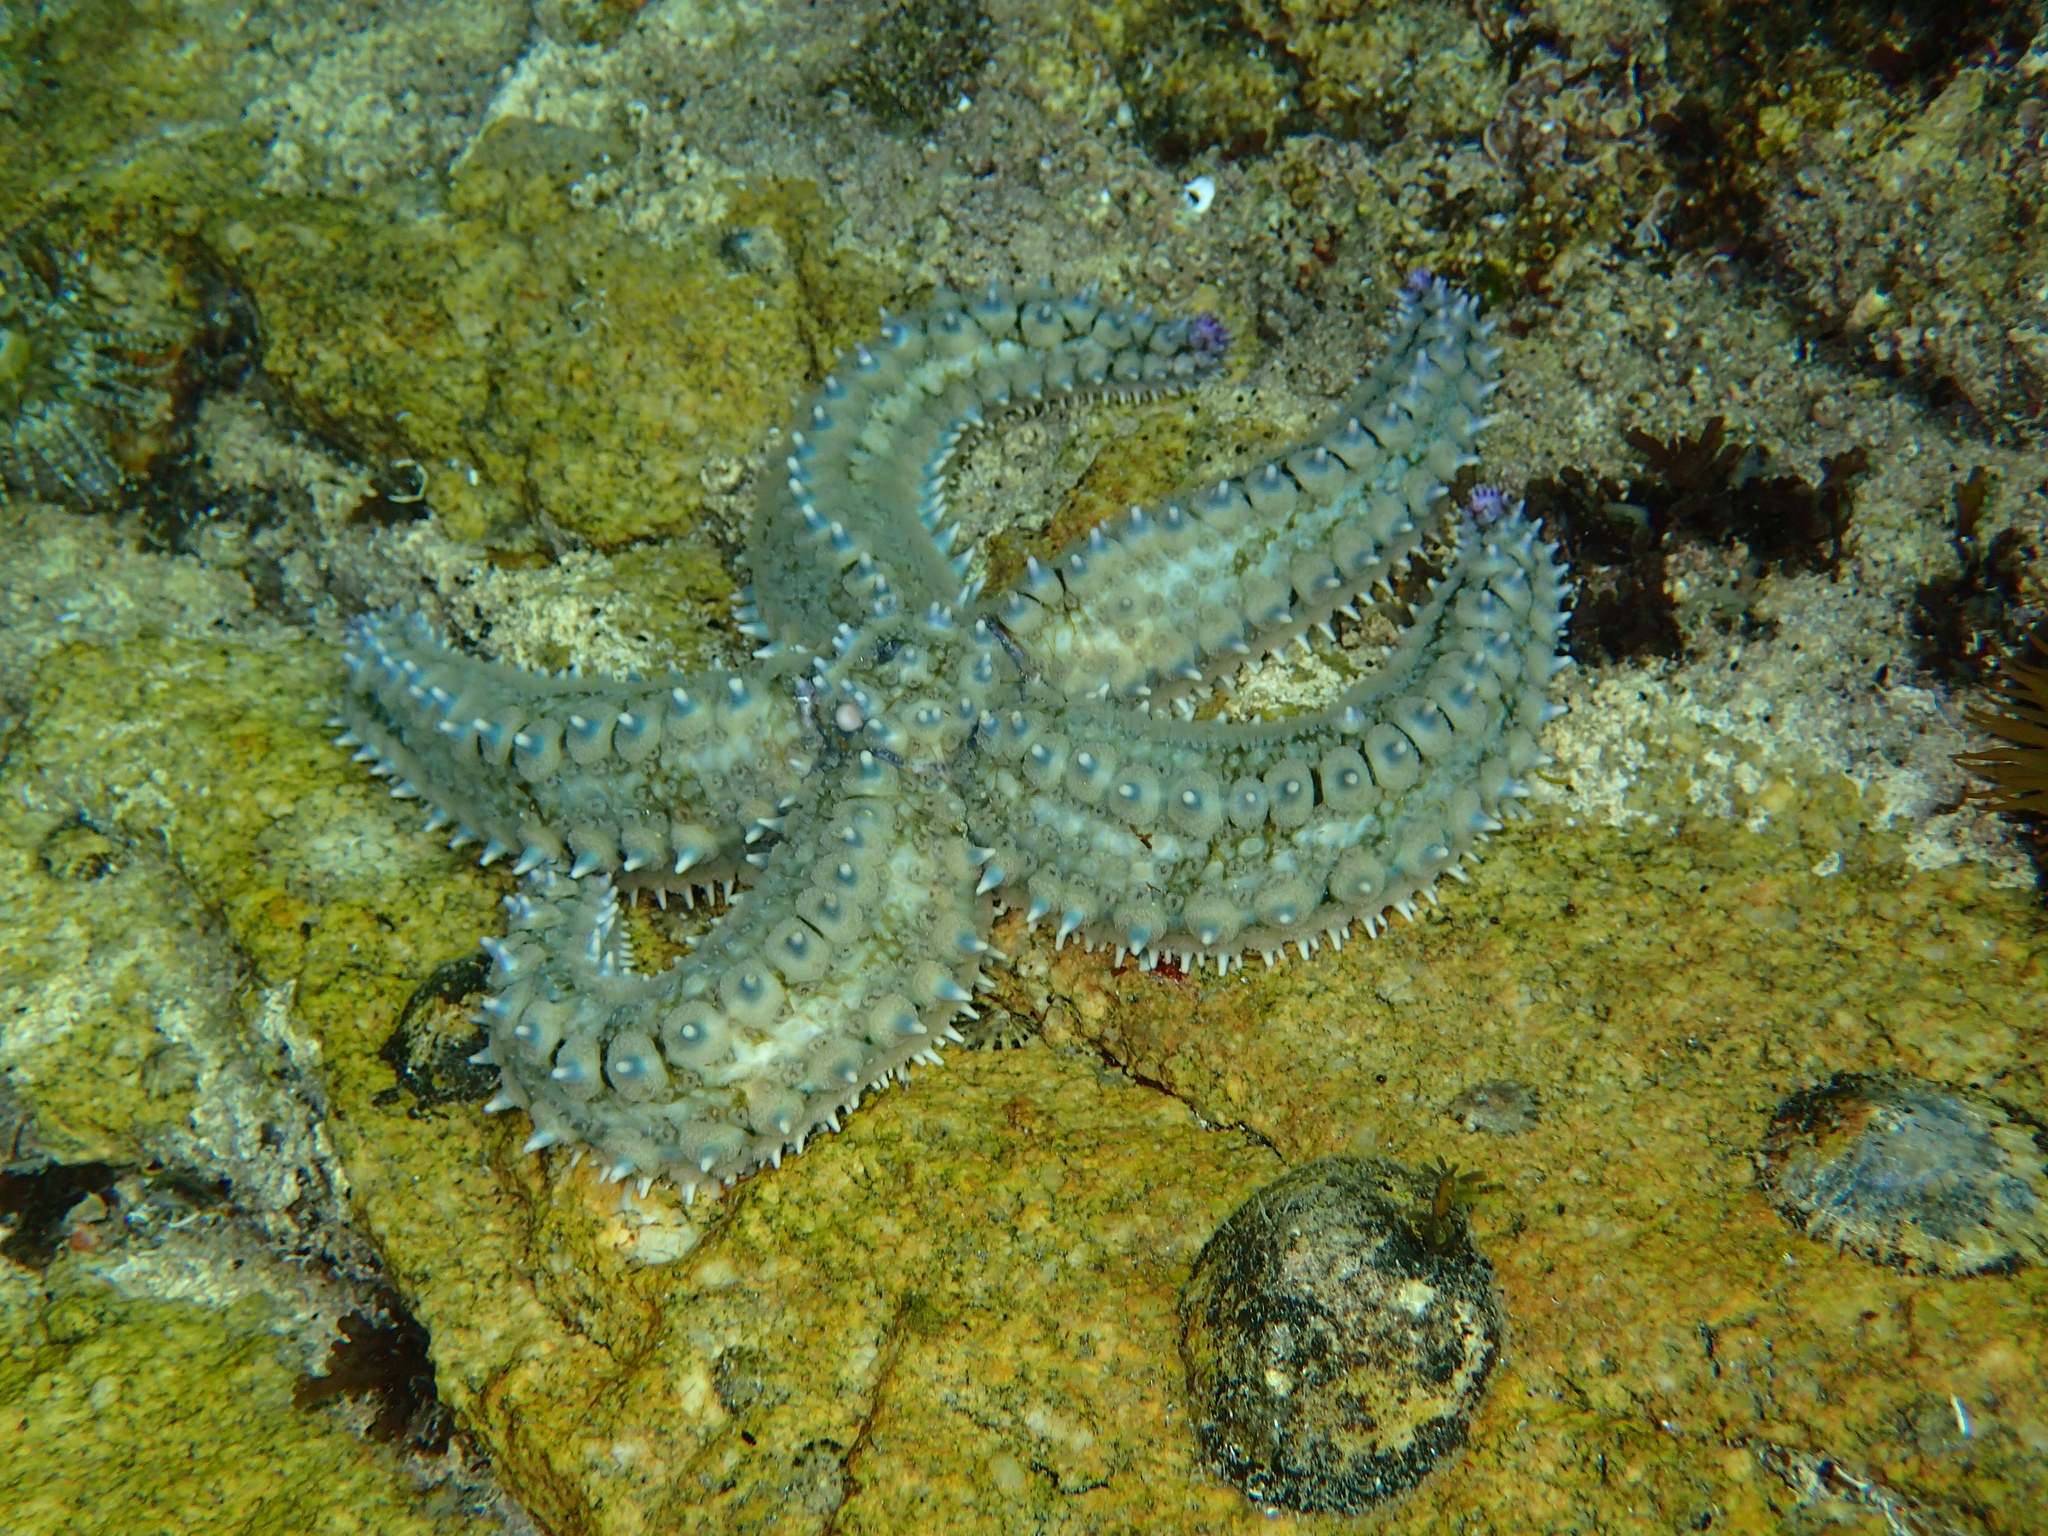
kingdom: Animalia
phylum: Echinodermata
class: Asteroidea
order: Forcipulatida
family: Asteriidae
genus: Marthasterias
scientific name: Marthasterias glacialis
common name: Spiny starfish
